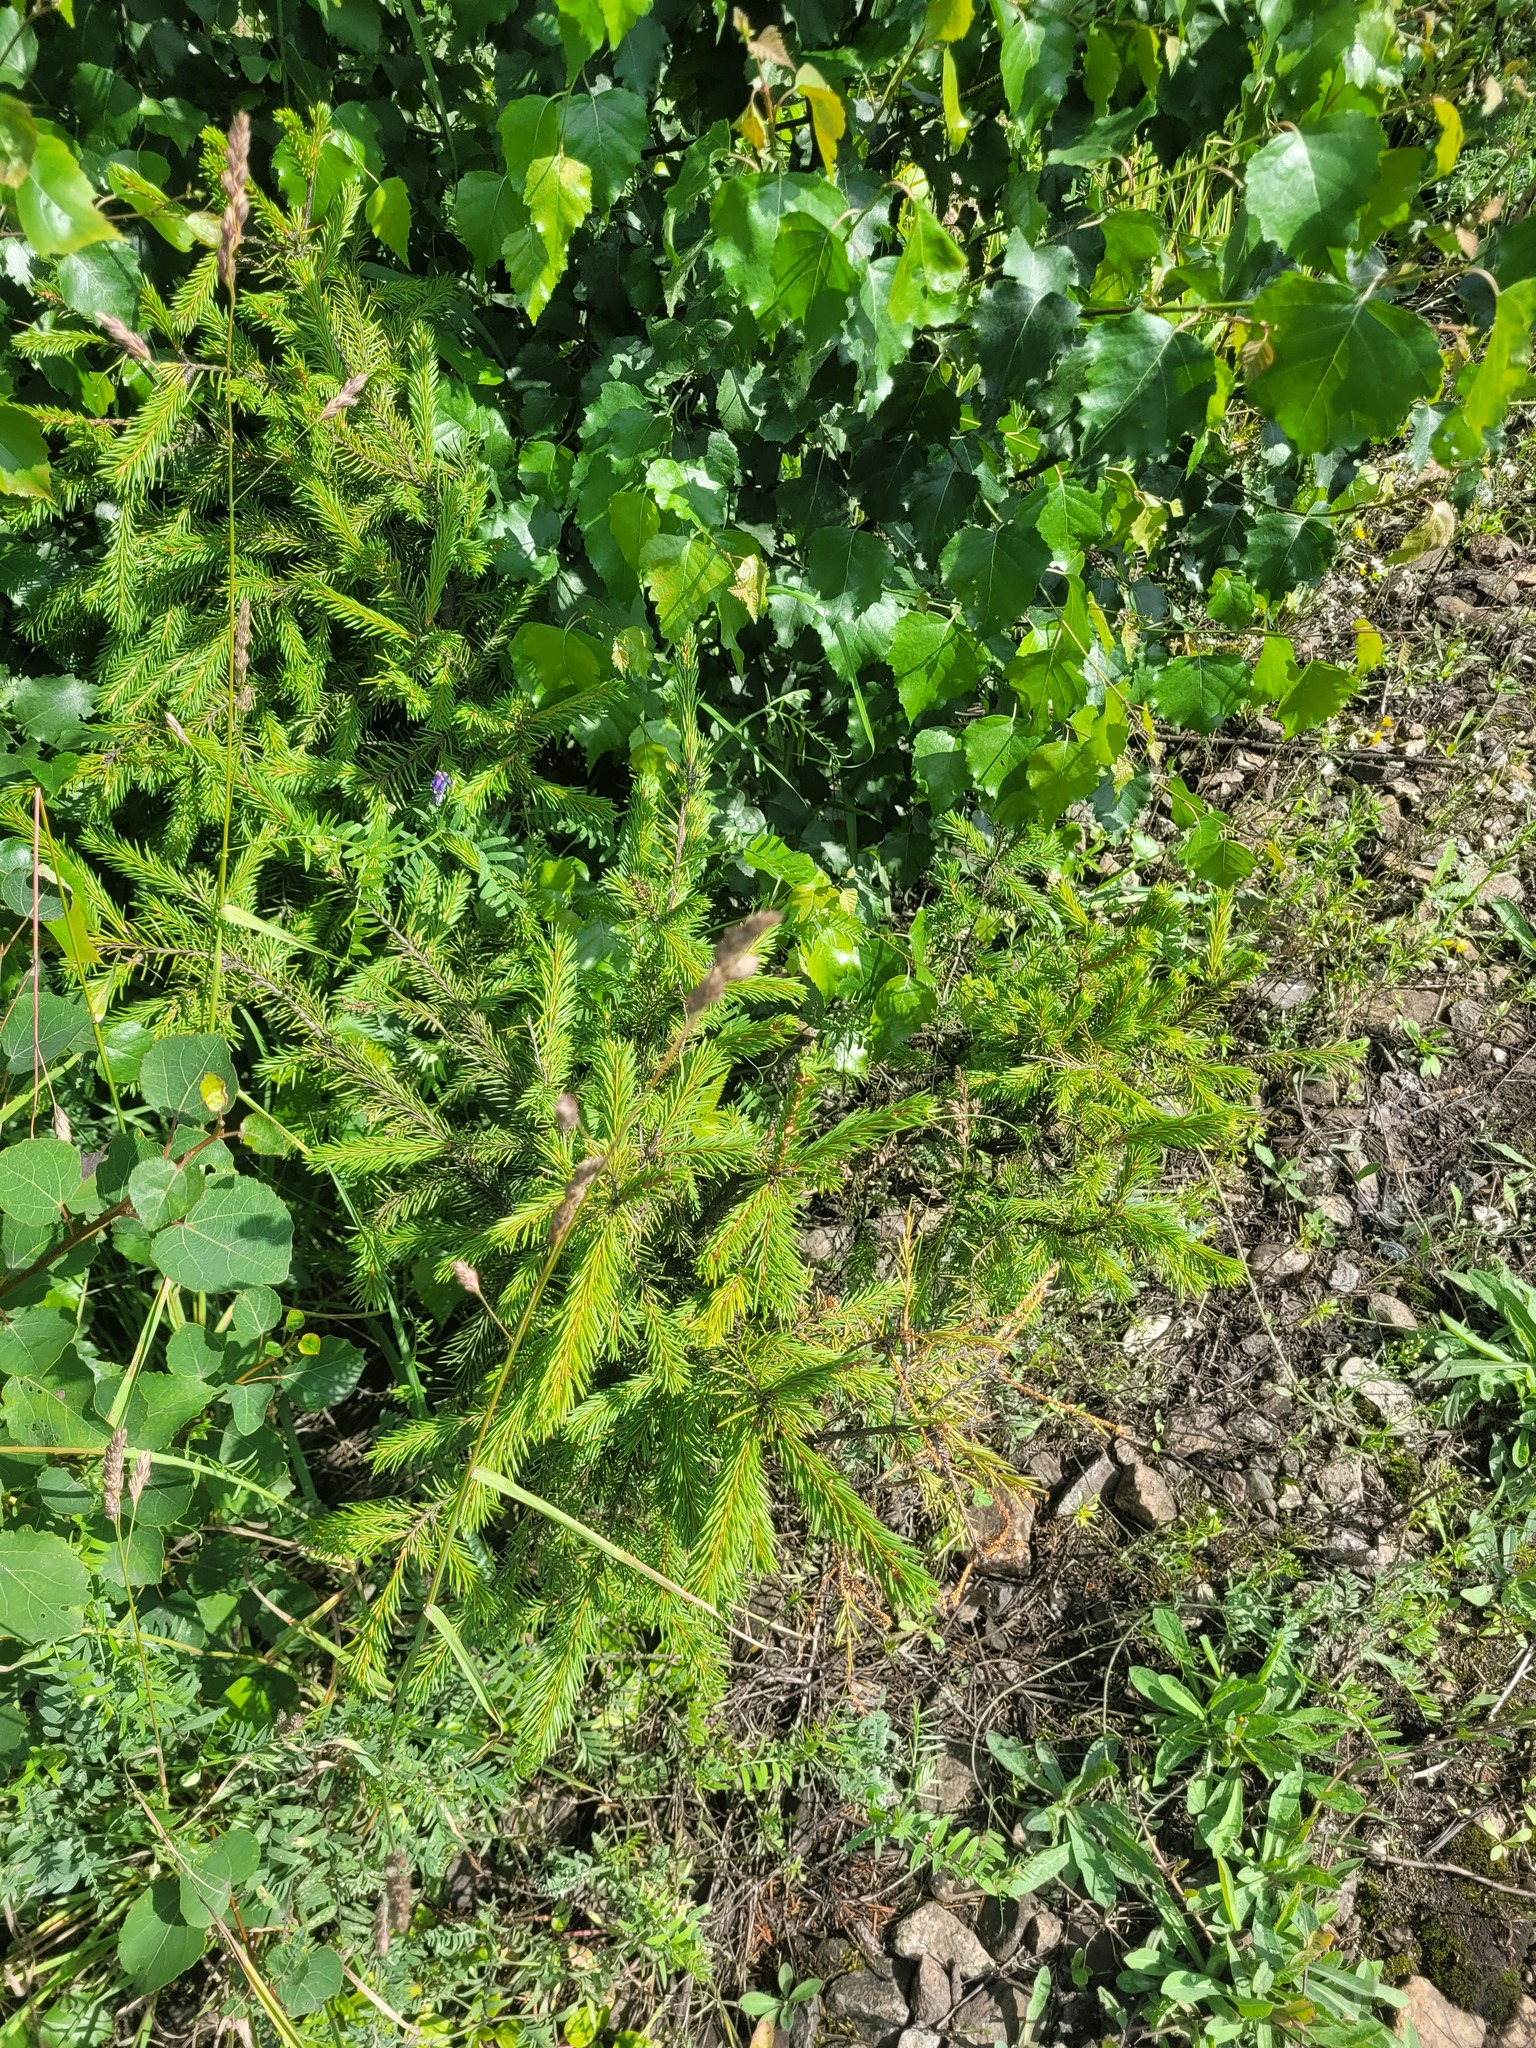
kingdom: Plantae
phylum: Tracheophyta
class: Pinopsida
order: Pinales
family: Pinaceae
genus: Picea
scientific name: Picea abies
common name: Norway spruce
